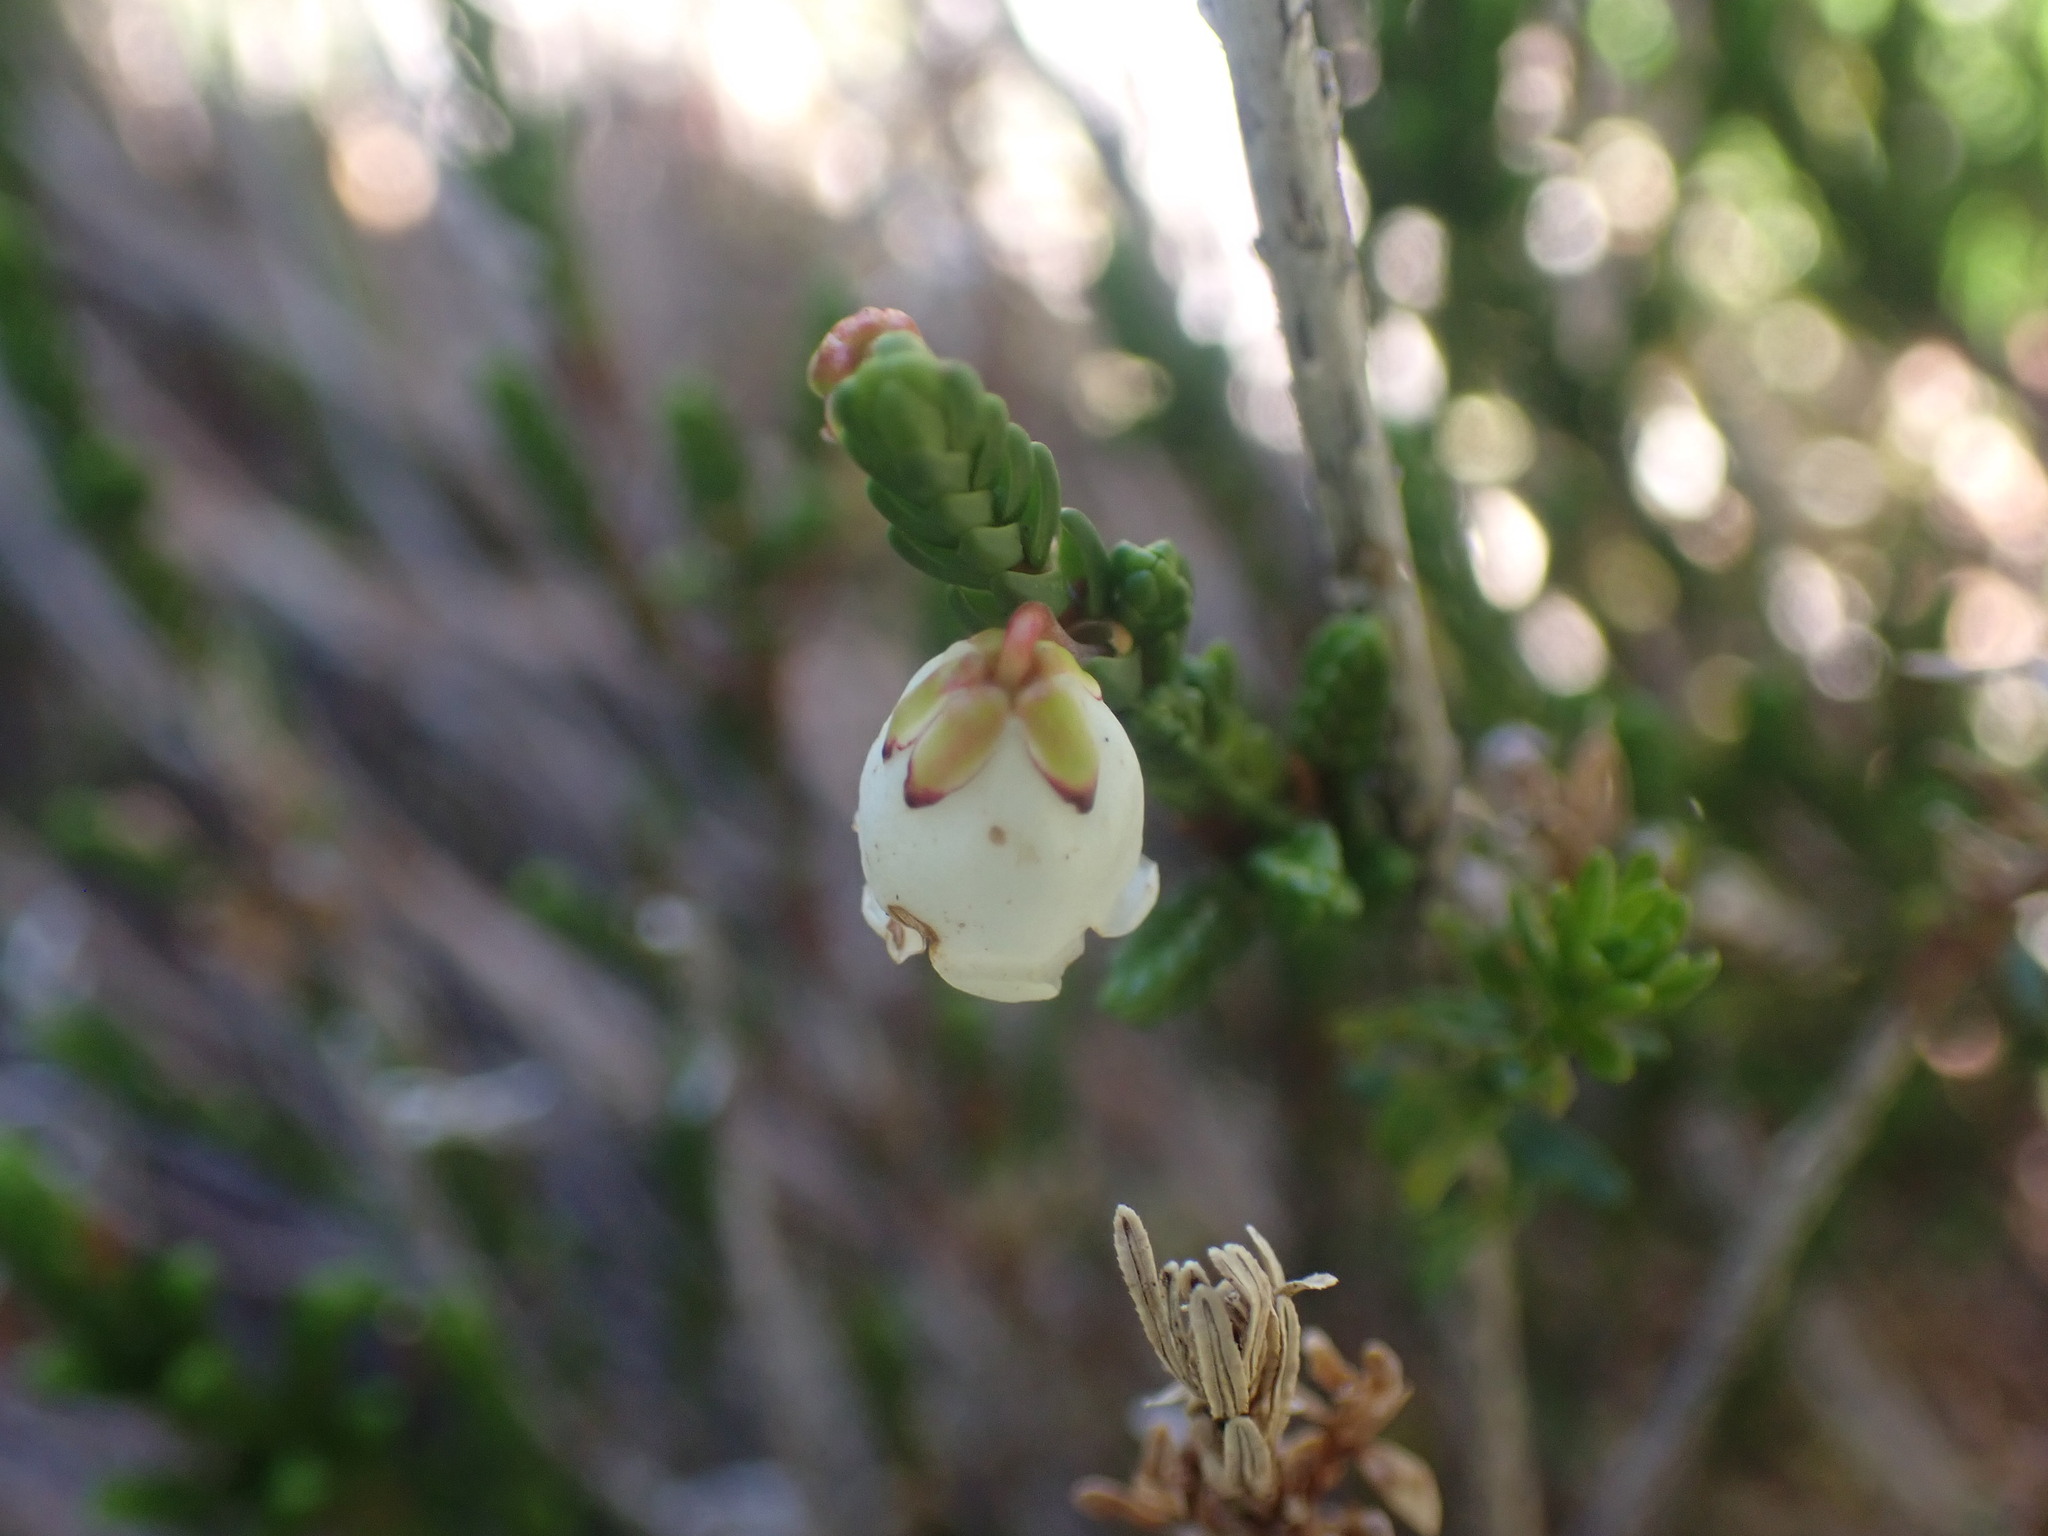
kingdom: Plantae
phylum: Tracheophyta
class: Magnoliopsida
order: Ericales
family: Ericaceae
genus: Cassiope
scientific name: Cassiope mertensiana
